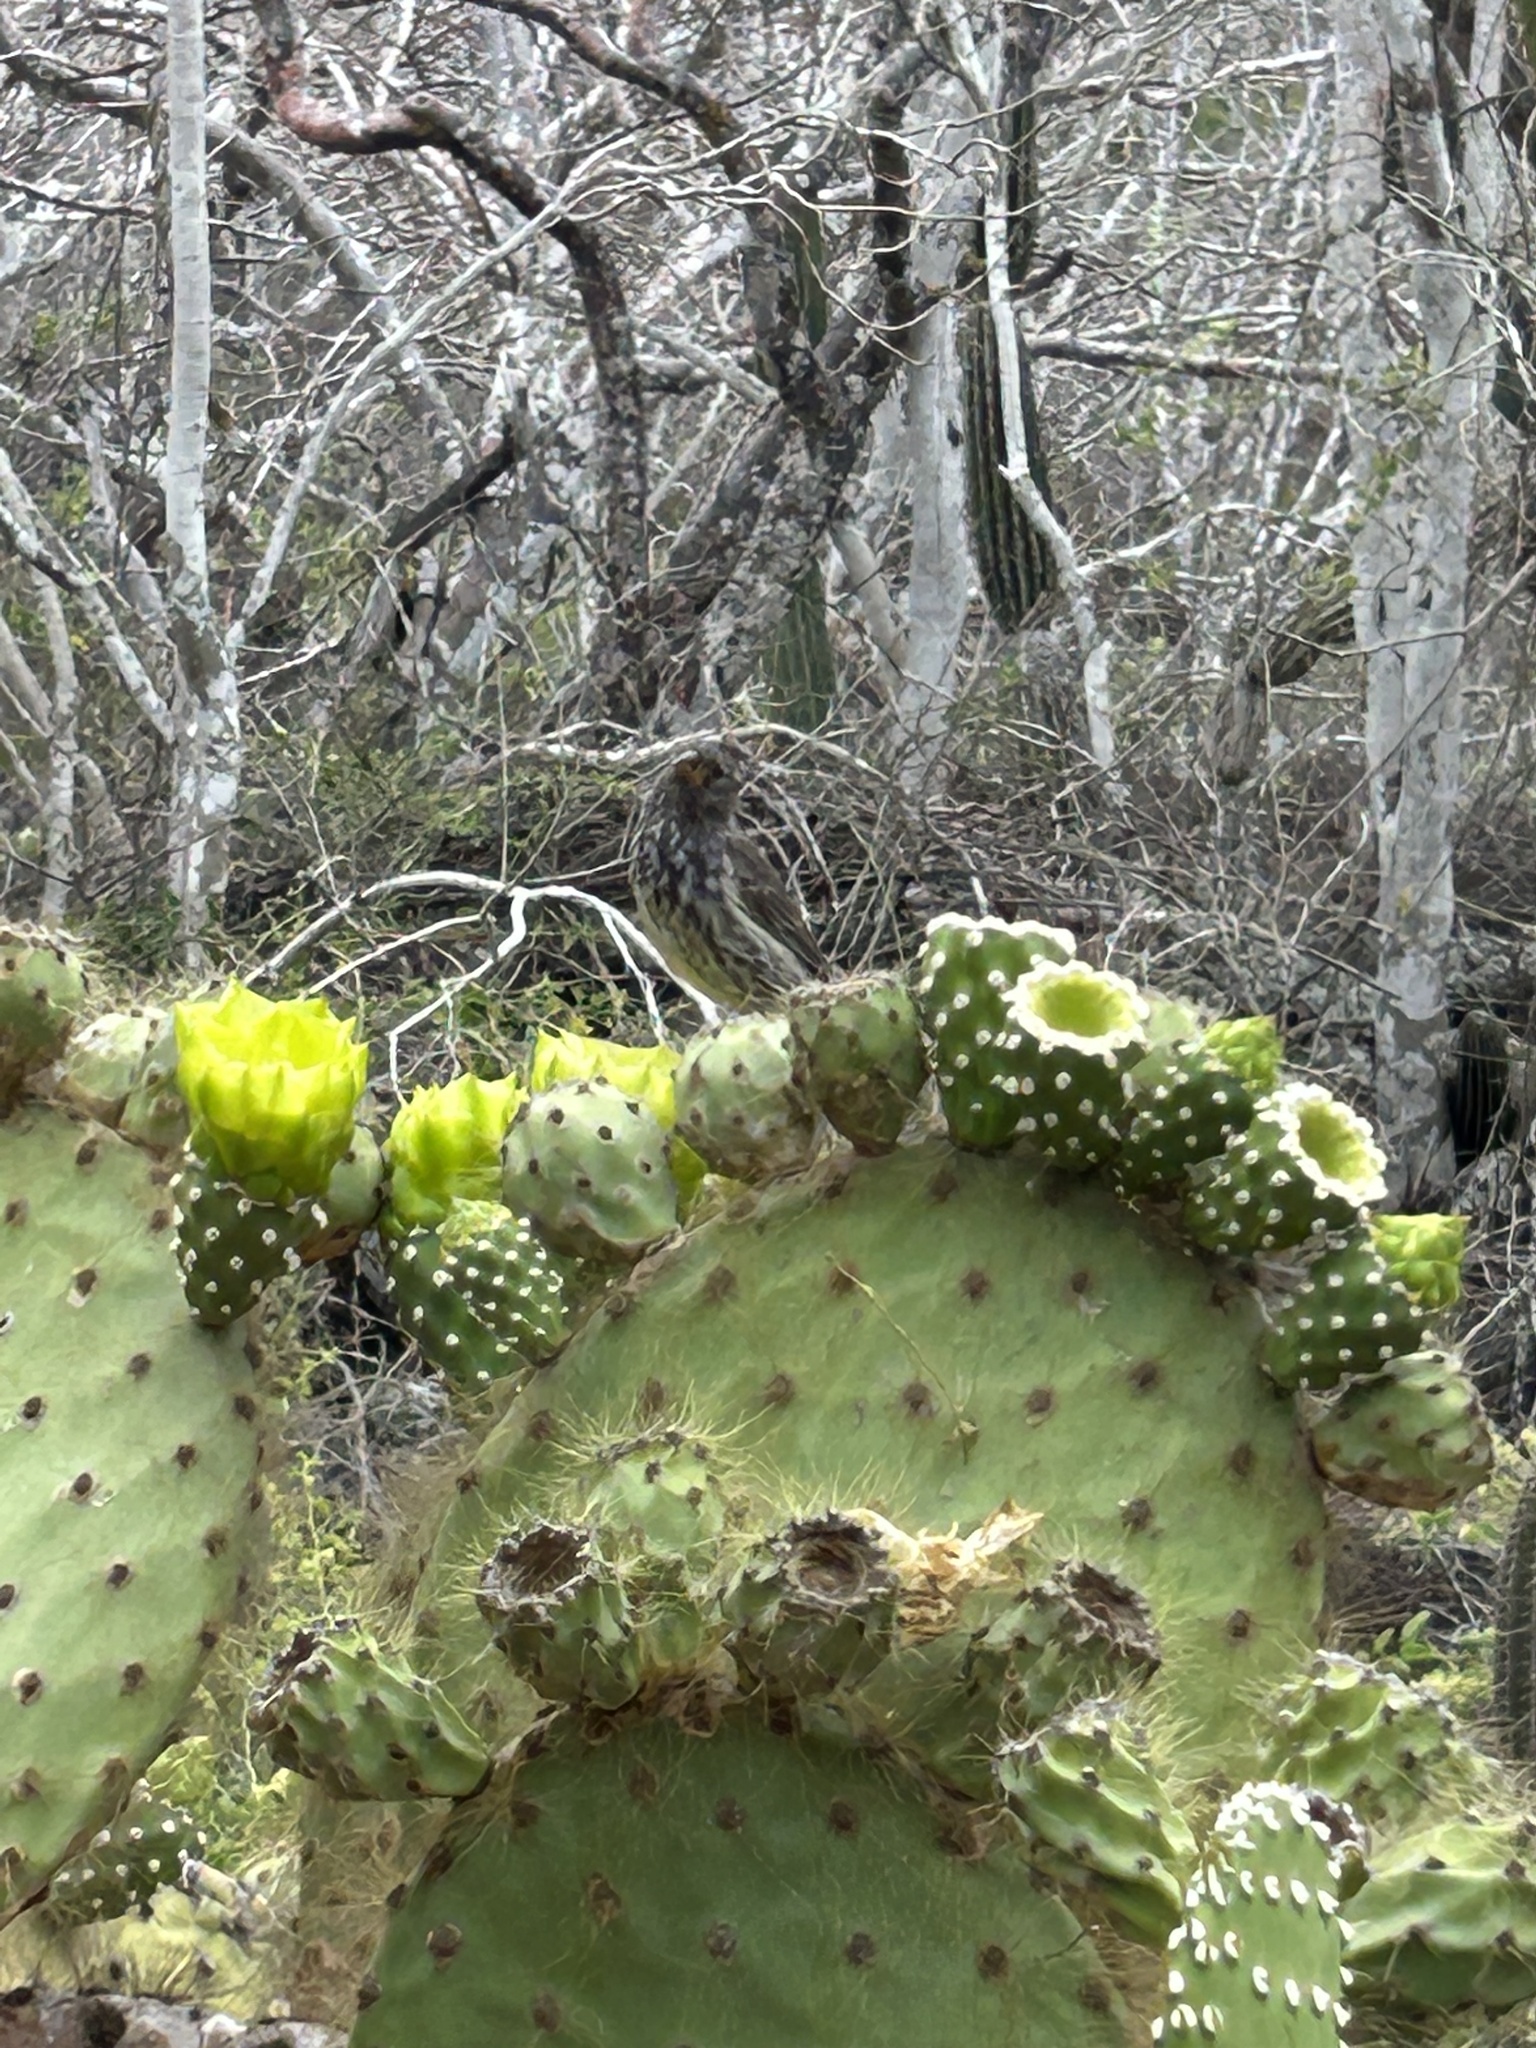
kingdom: Plantae
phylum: Tracheophyta
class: Magnoliopsida
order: Caryophyllales
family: Cactaceae
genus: Opuntia
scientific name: Opuntia galapageia
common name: Galápagos prickly pear
